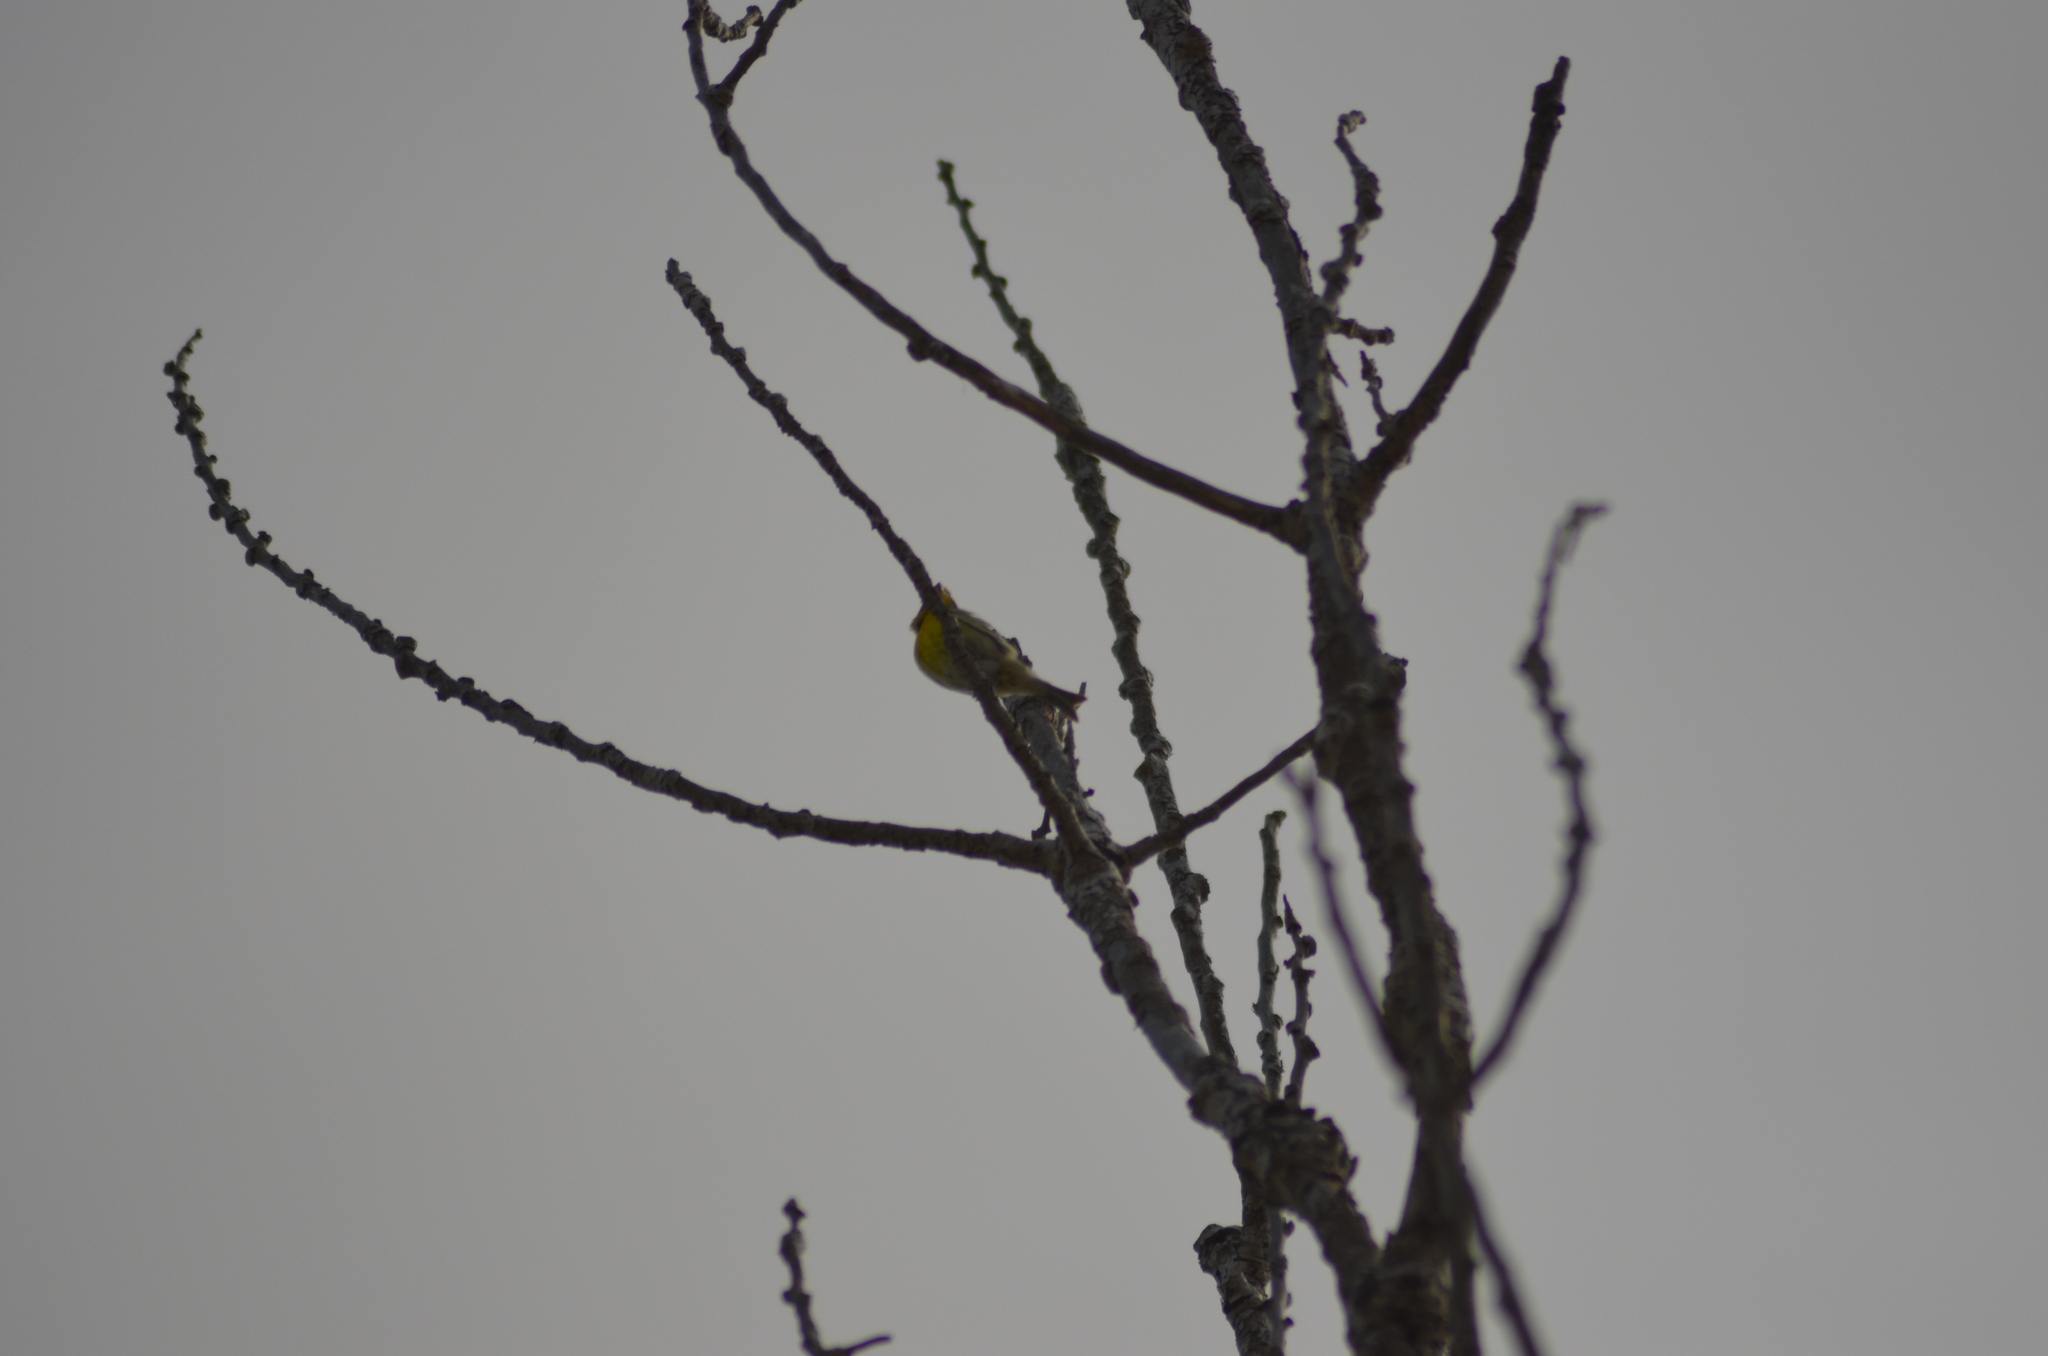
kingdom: Animalia
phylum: Chordata
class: Aves
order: Passeriformes
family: Fringillidae
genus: Serinus
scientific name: Serinus serinus
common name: European serin
